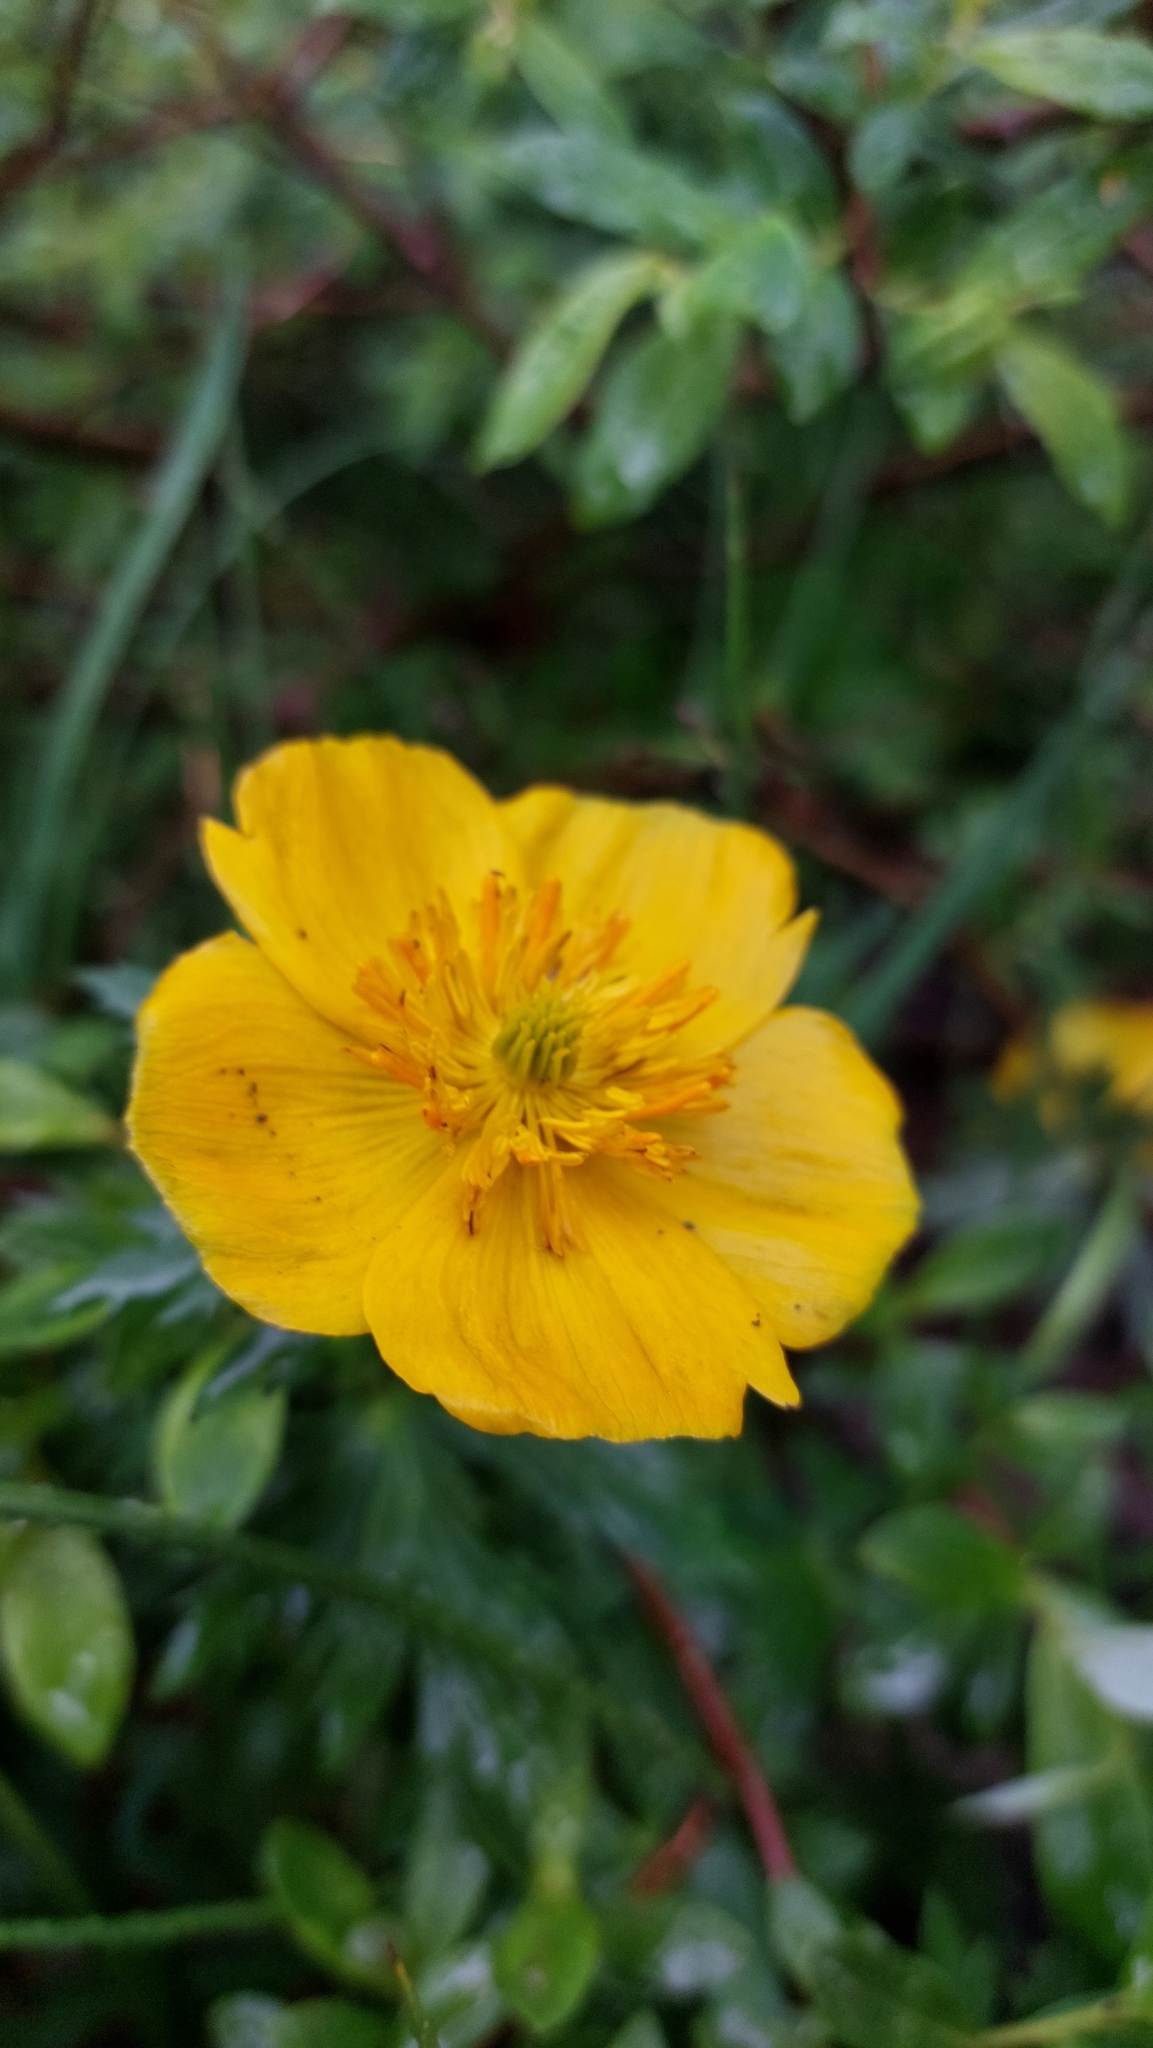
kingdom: Plantae
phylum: Tracheophyta
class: Magnoliopsida
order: Ranunculales
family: Ranunculaceae
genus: Trollius
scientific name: Trollius riederianus
